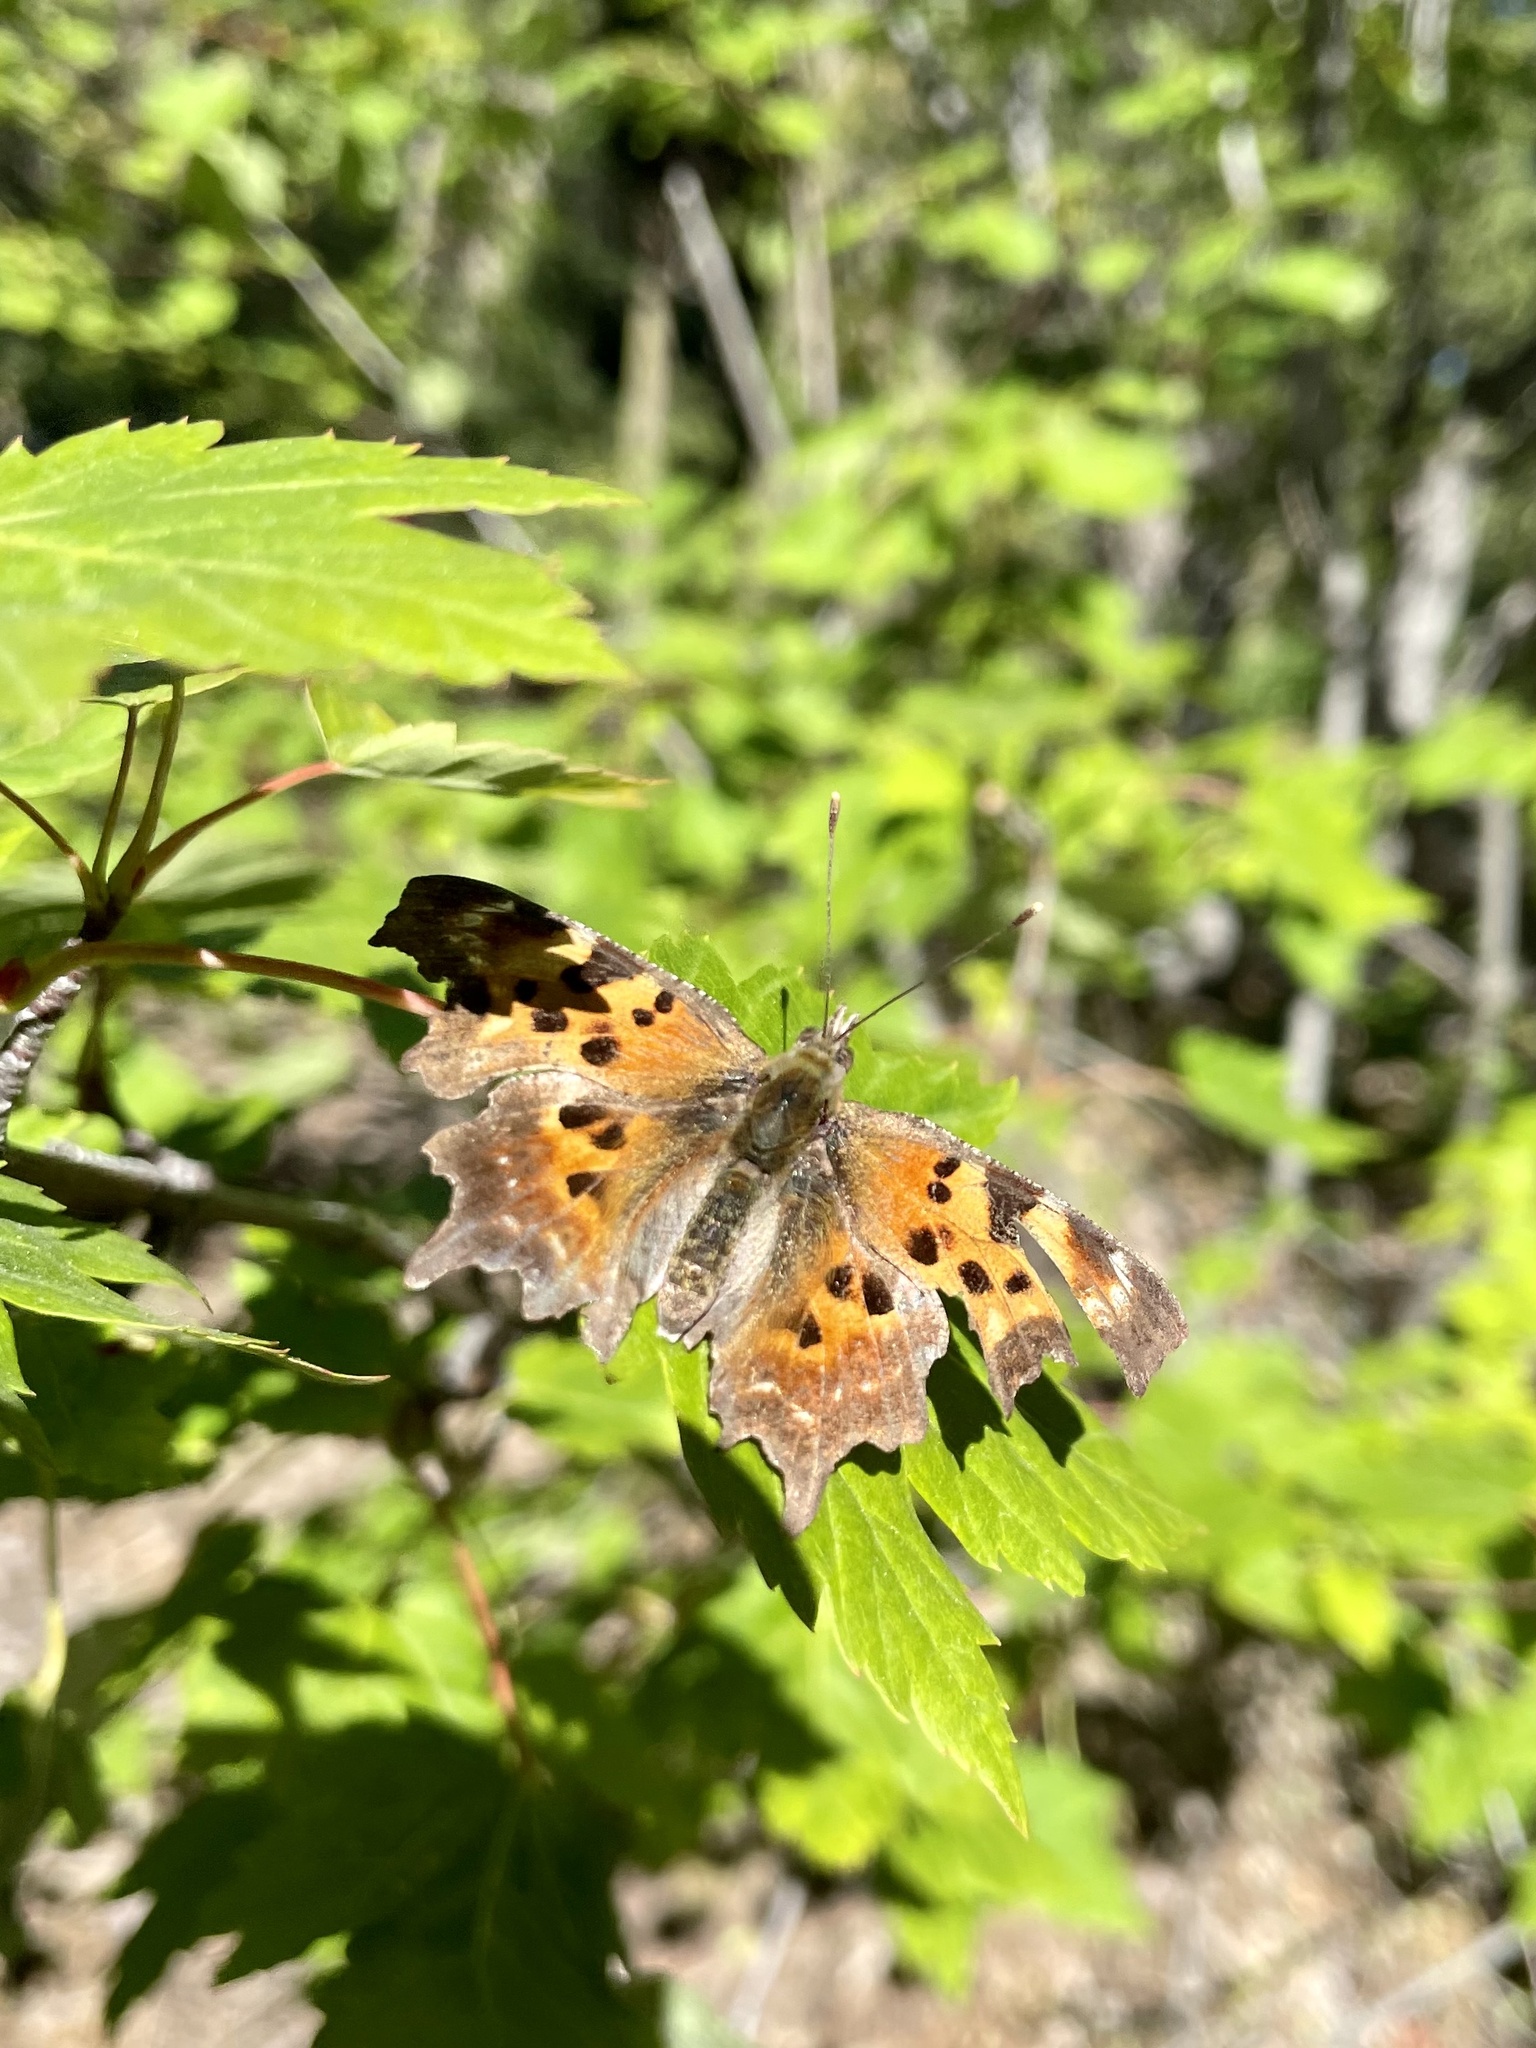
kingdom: Animalia
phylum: Arthropoda
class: Insecta
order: Lepidoptera
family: Nymphalidae
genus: Polygonia
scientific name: Polygonia faunus
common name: Green comma
